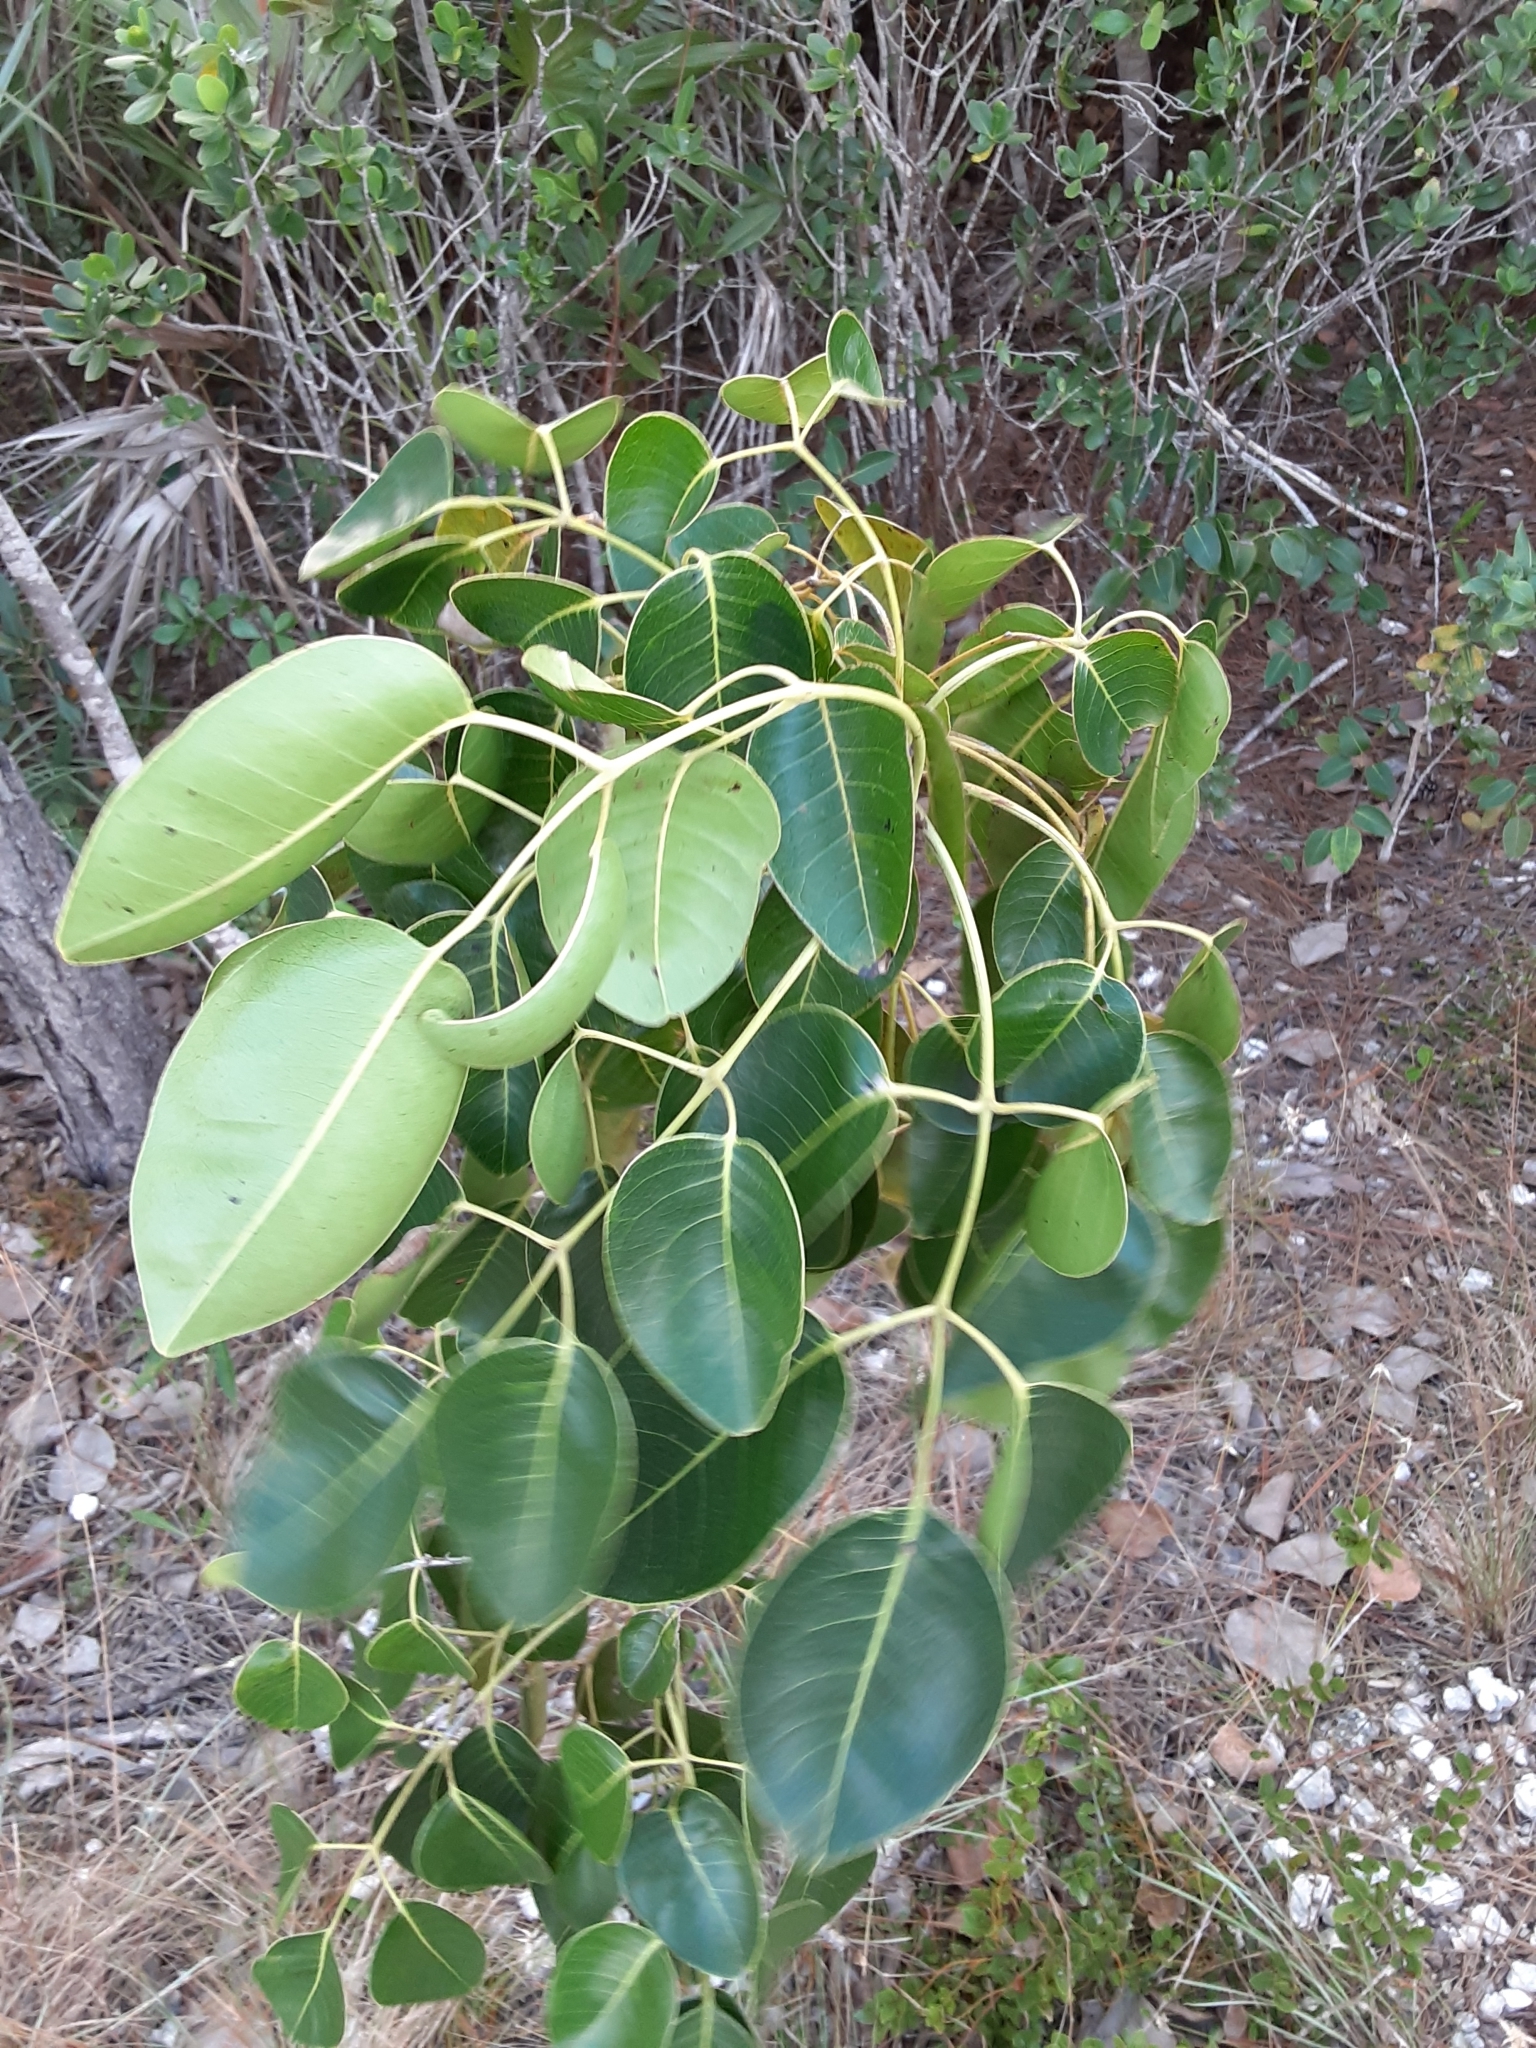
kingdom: Plantae
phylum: Tracheophyta
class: Magnoliopsida
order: Sapindales
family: Anacardiaceae
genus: Metopium
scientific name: Metopium toxiferum
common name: Florida poisontree
